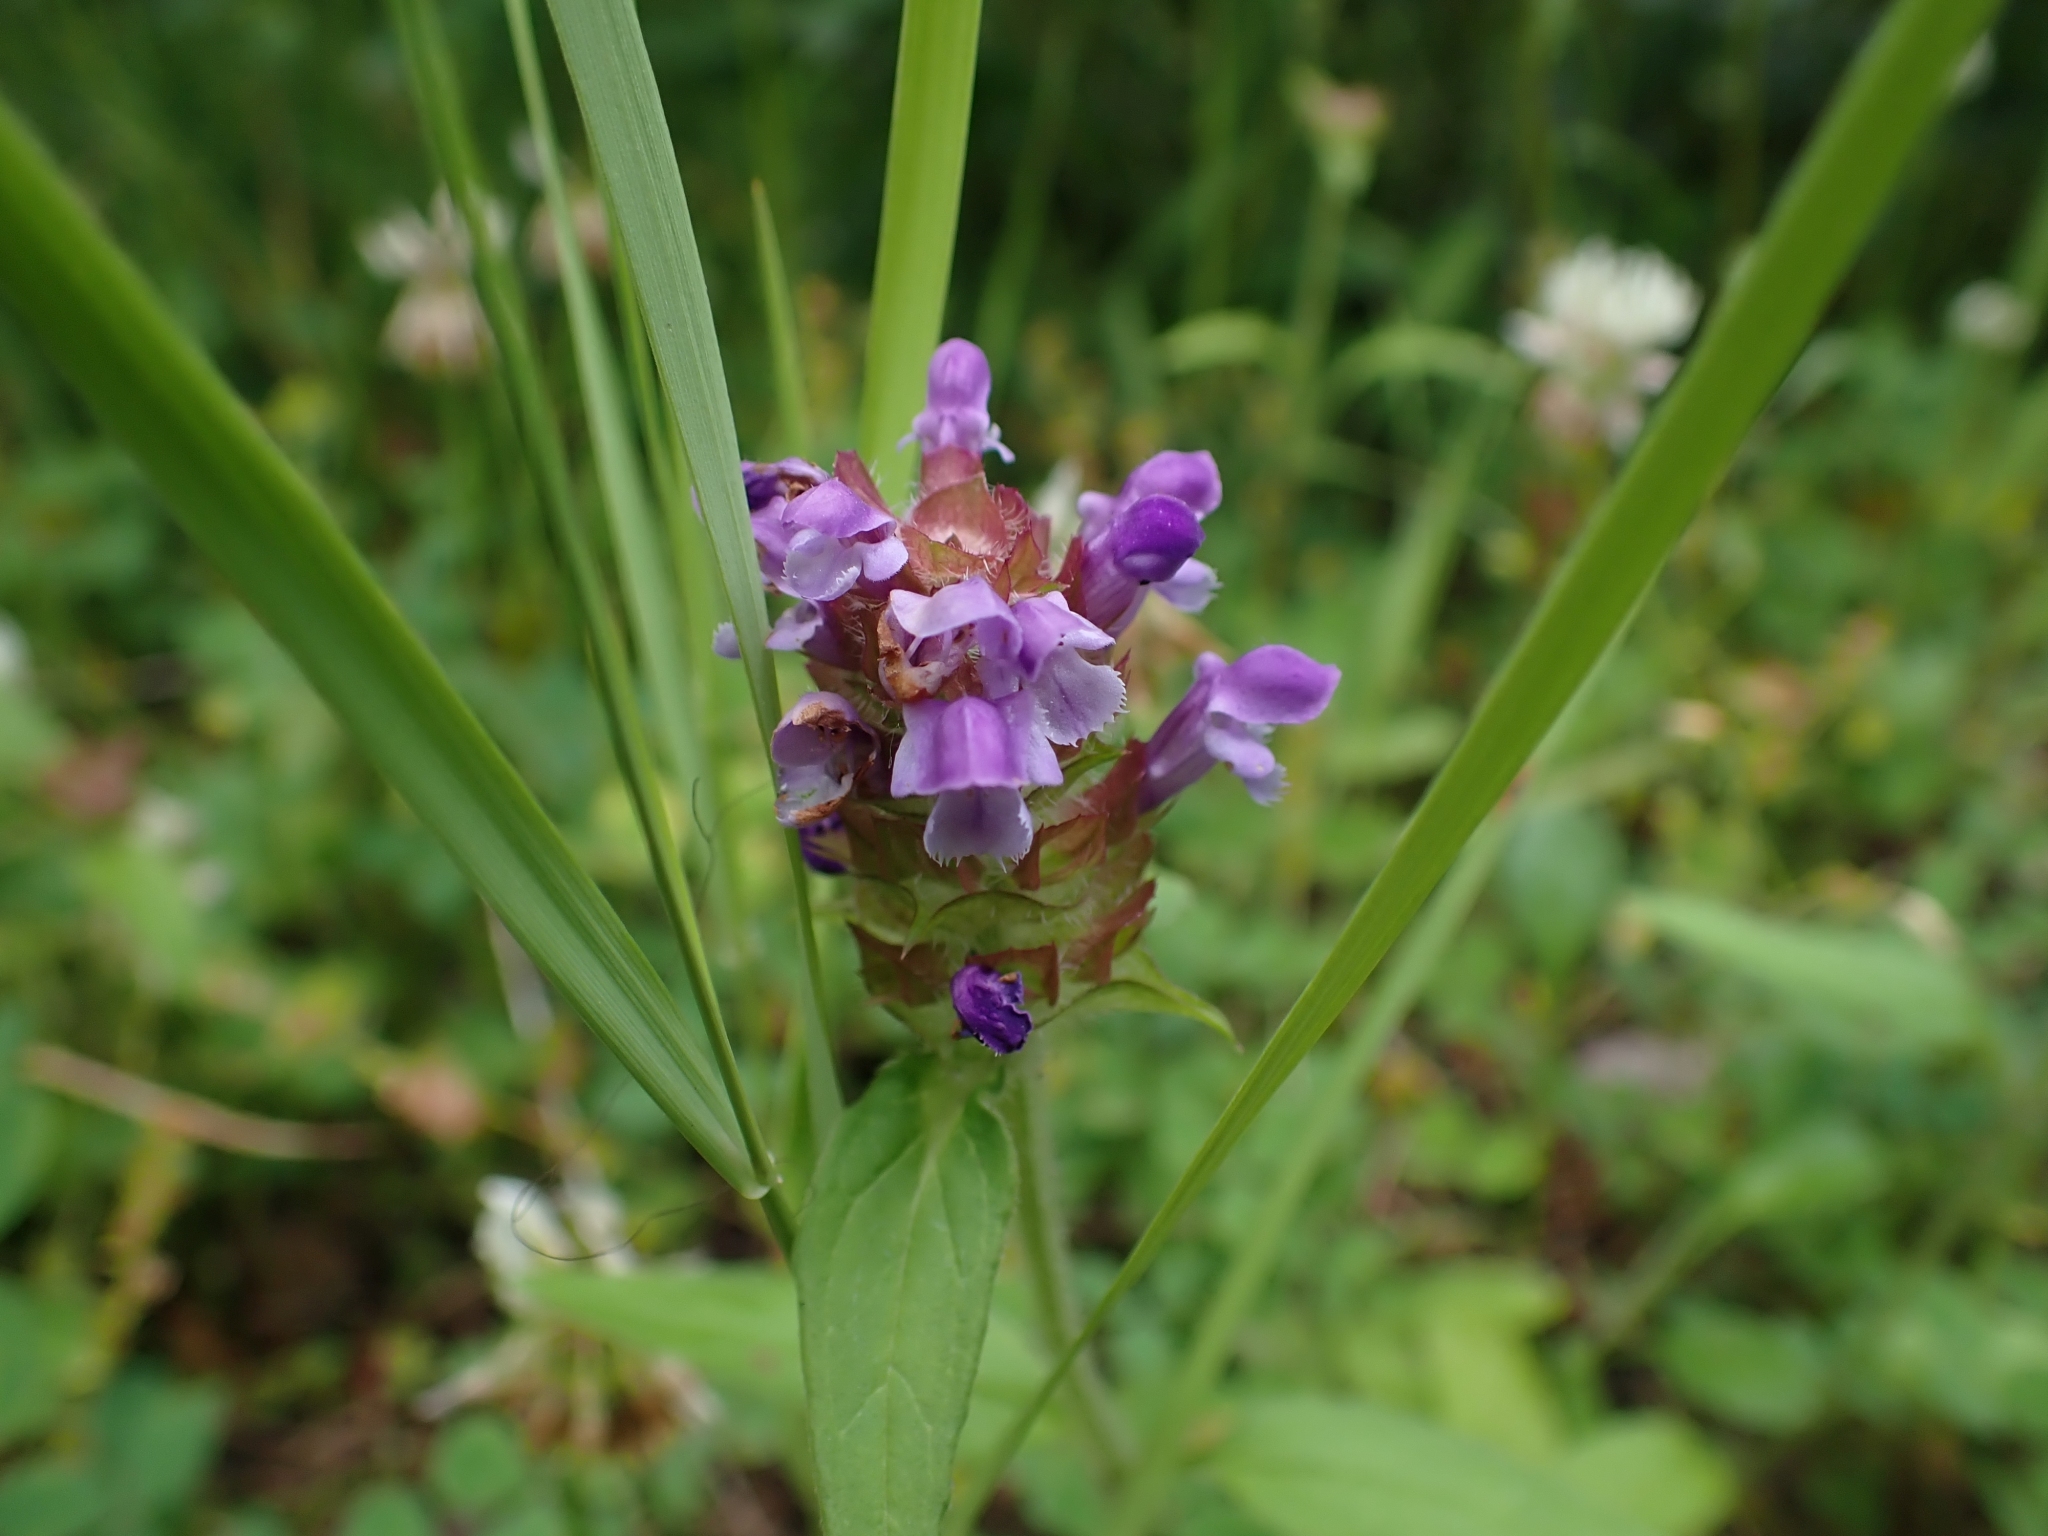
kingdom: Plantae
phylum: Tracheophyta
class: Magnoliopsida
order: Lamiales
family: Lamiaceae
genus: Prunella
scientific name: Prunella vulgaris
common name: Heal-all
